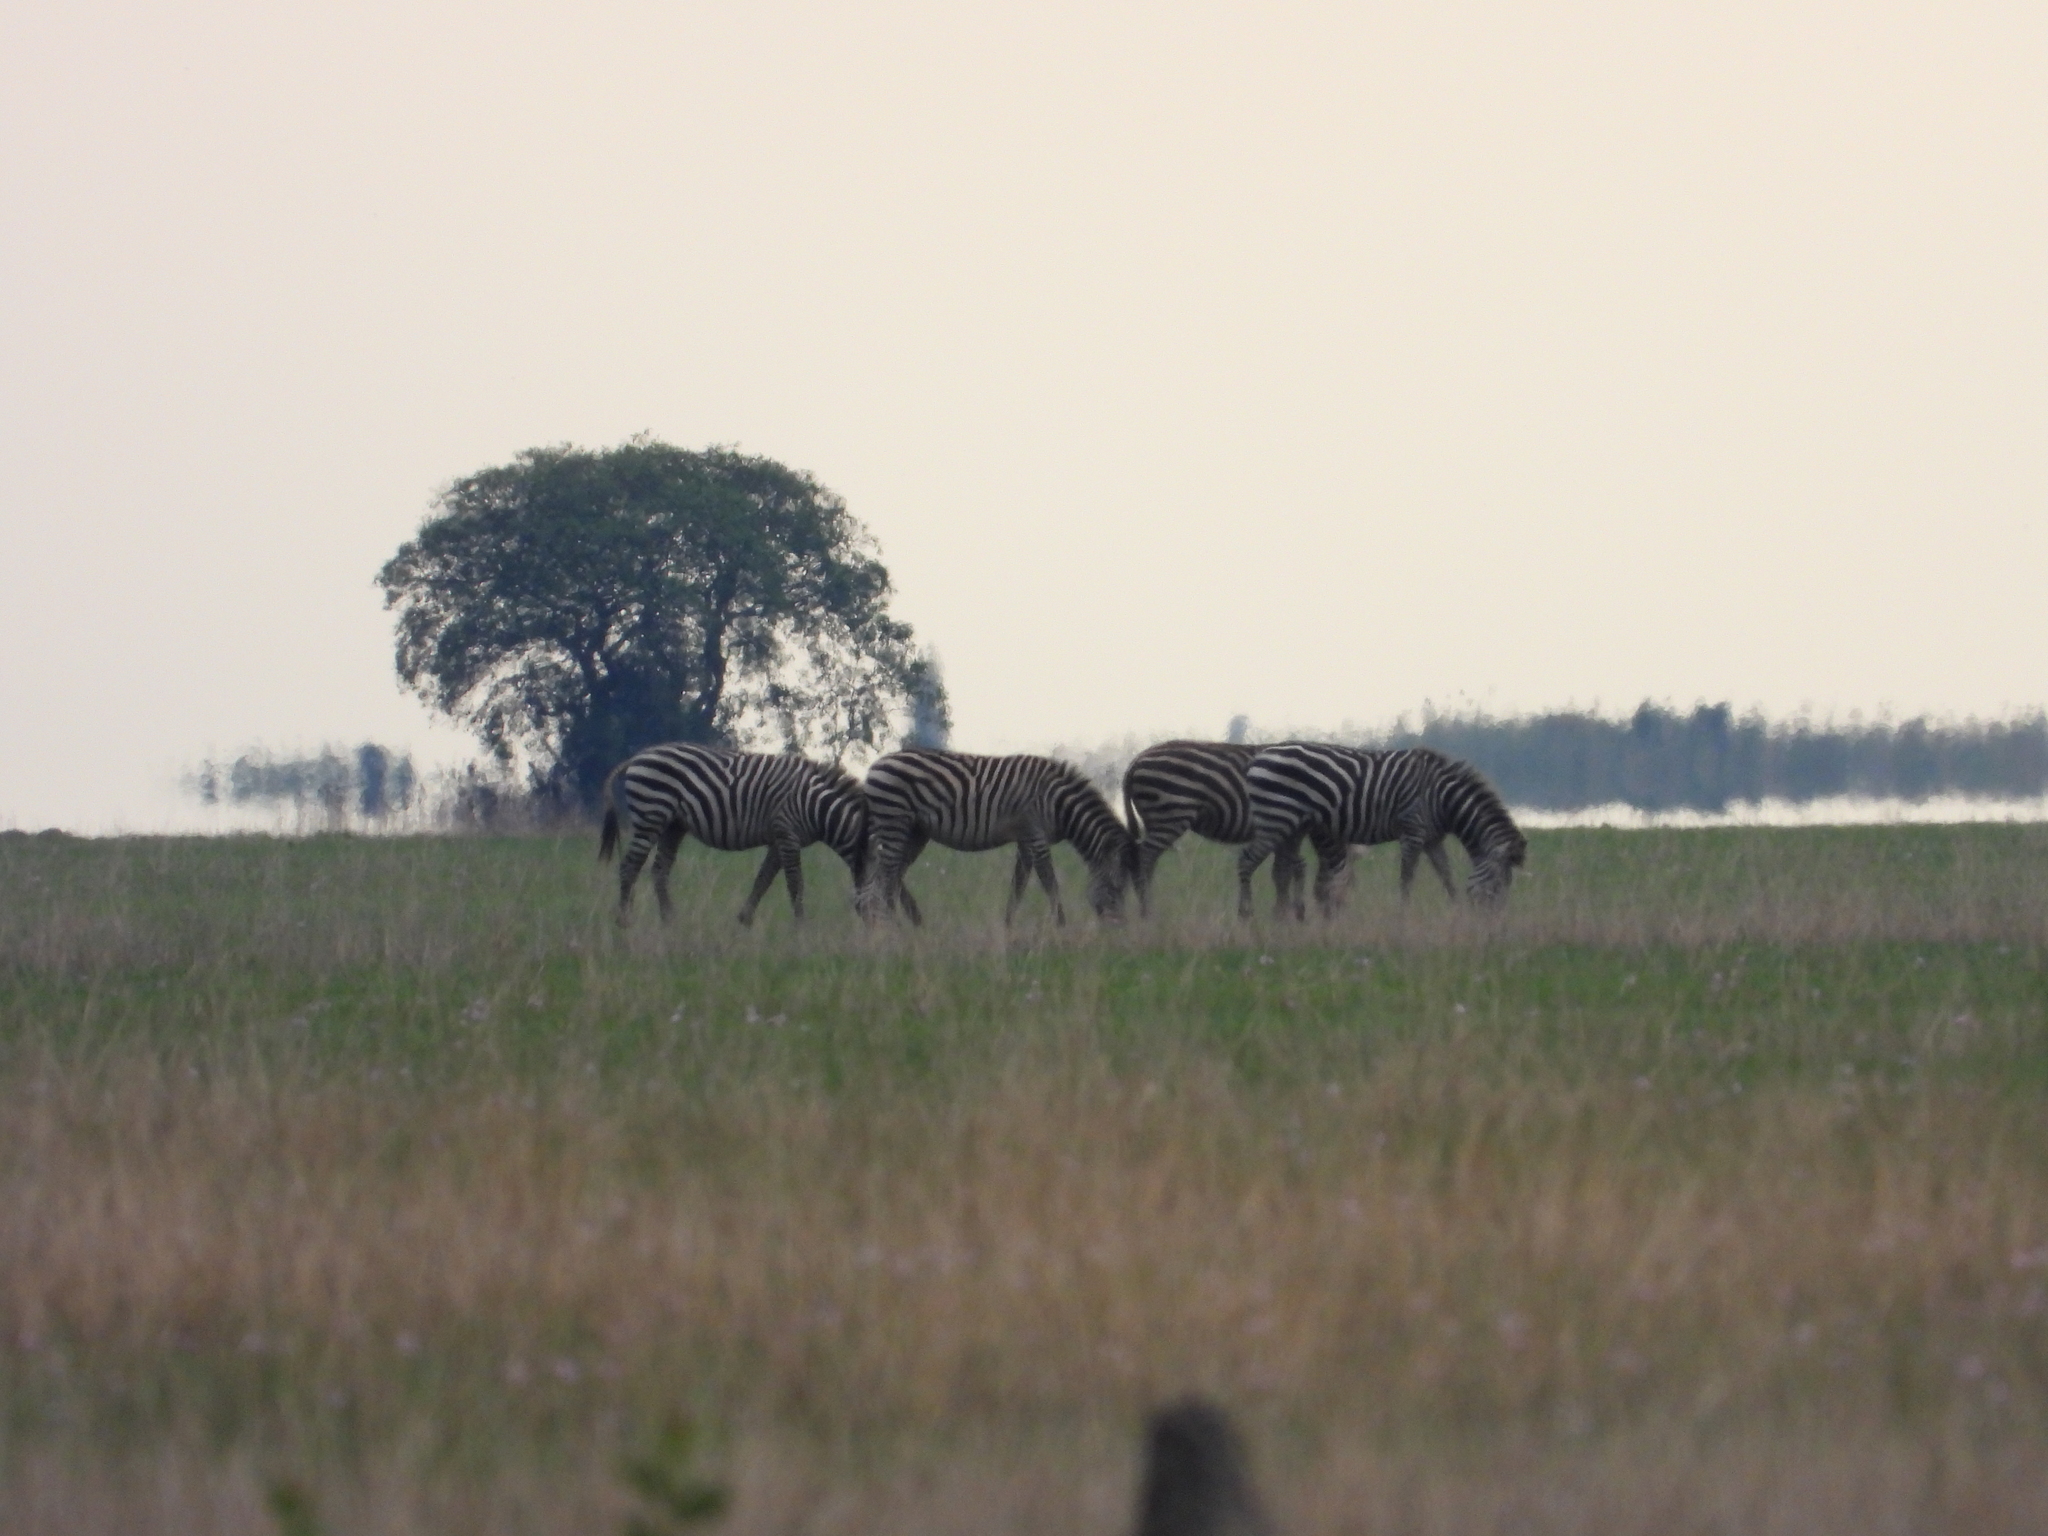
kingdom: Animalia
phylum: Chordata
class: Mammalia
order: Perissodactyla
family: Equidae
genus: Equus
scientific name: Equus quagga
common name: Plains zebra
